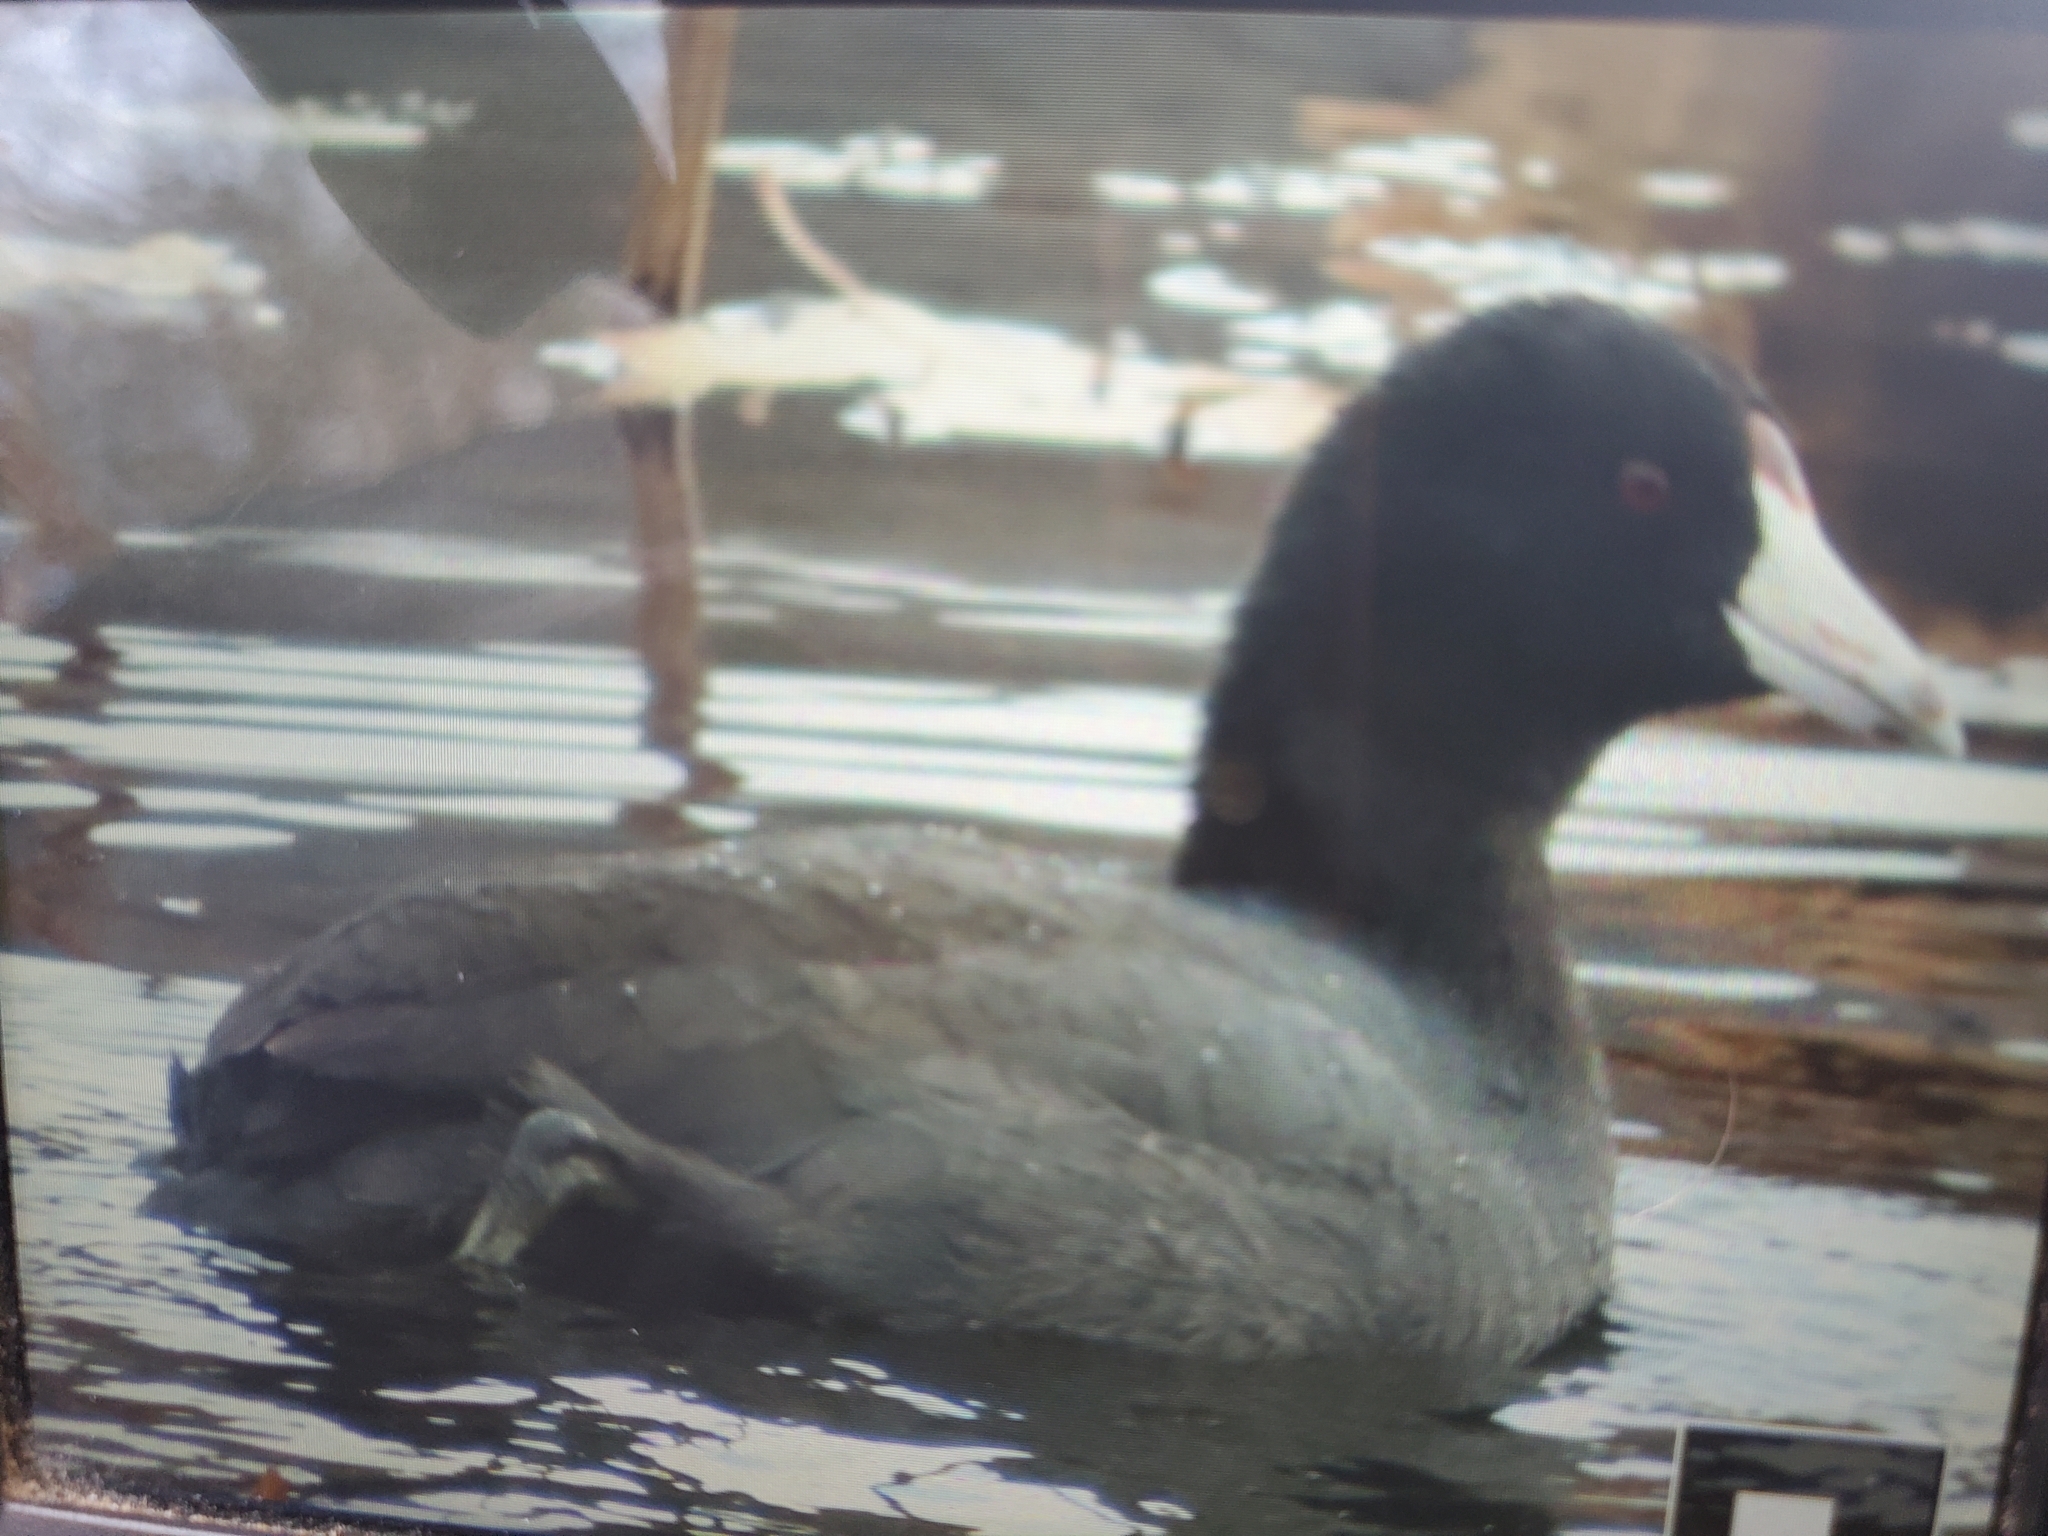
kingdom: Animalia
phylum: Chordata
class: Aves
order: Gruiformes
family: Rallidae
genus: Fulica
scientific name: Fulica americana
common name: American coot
